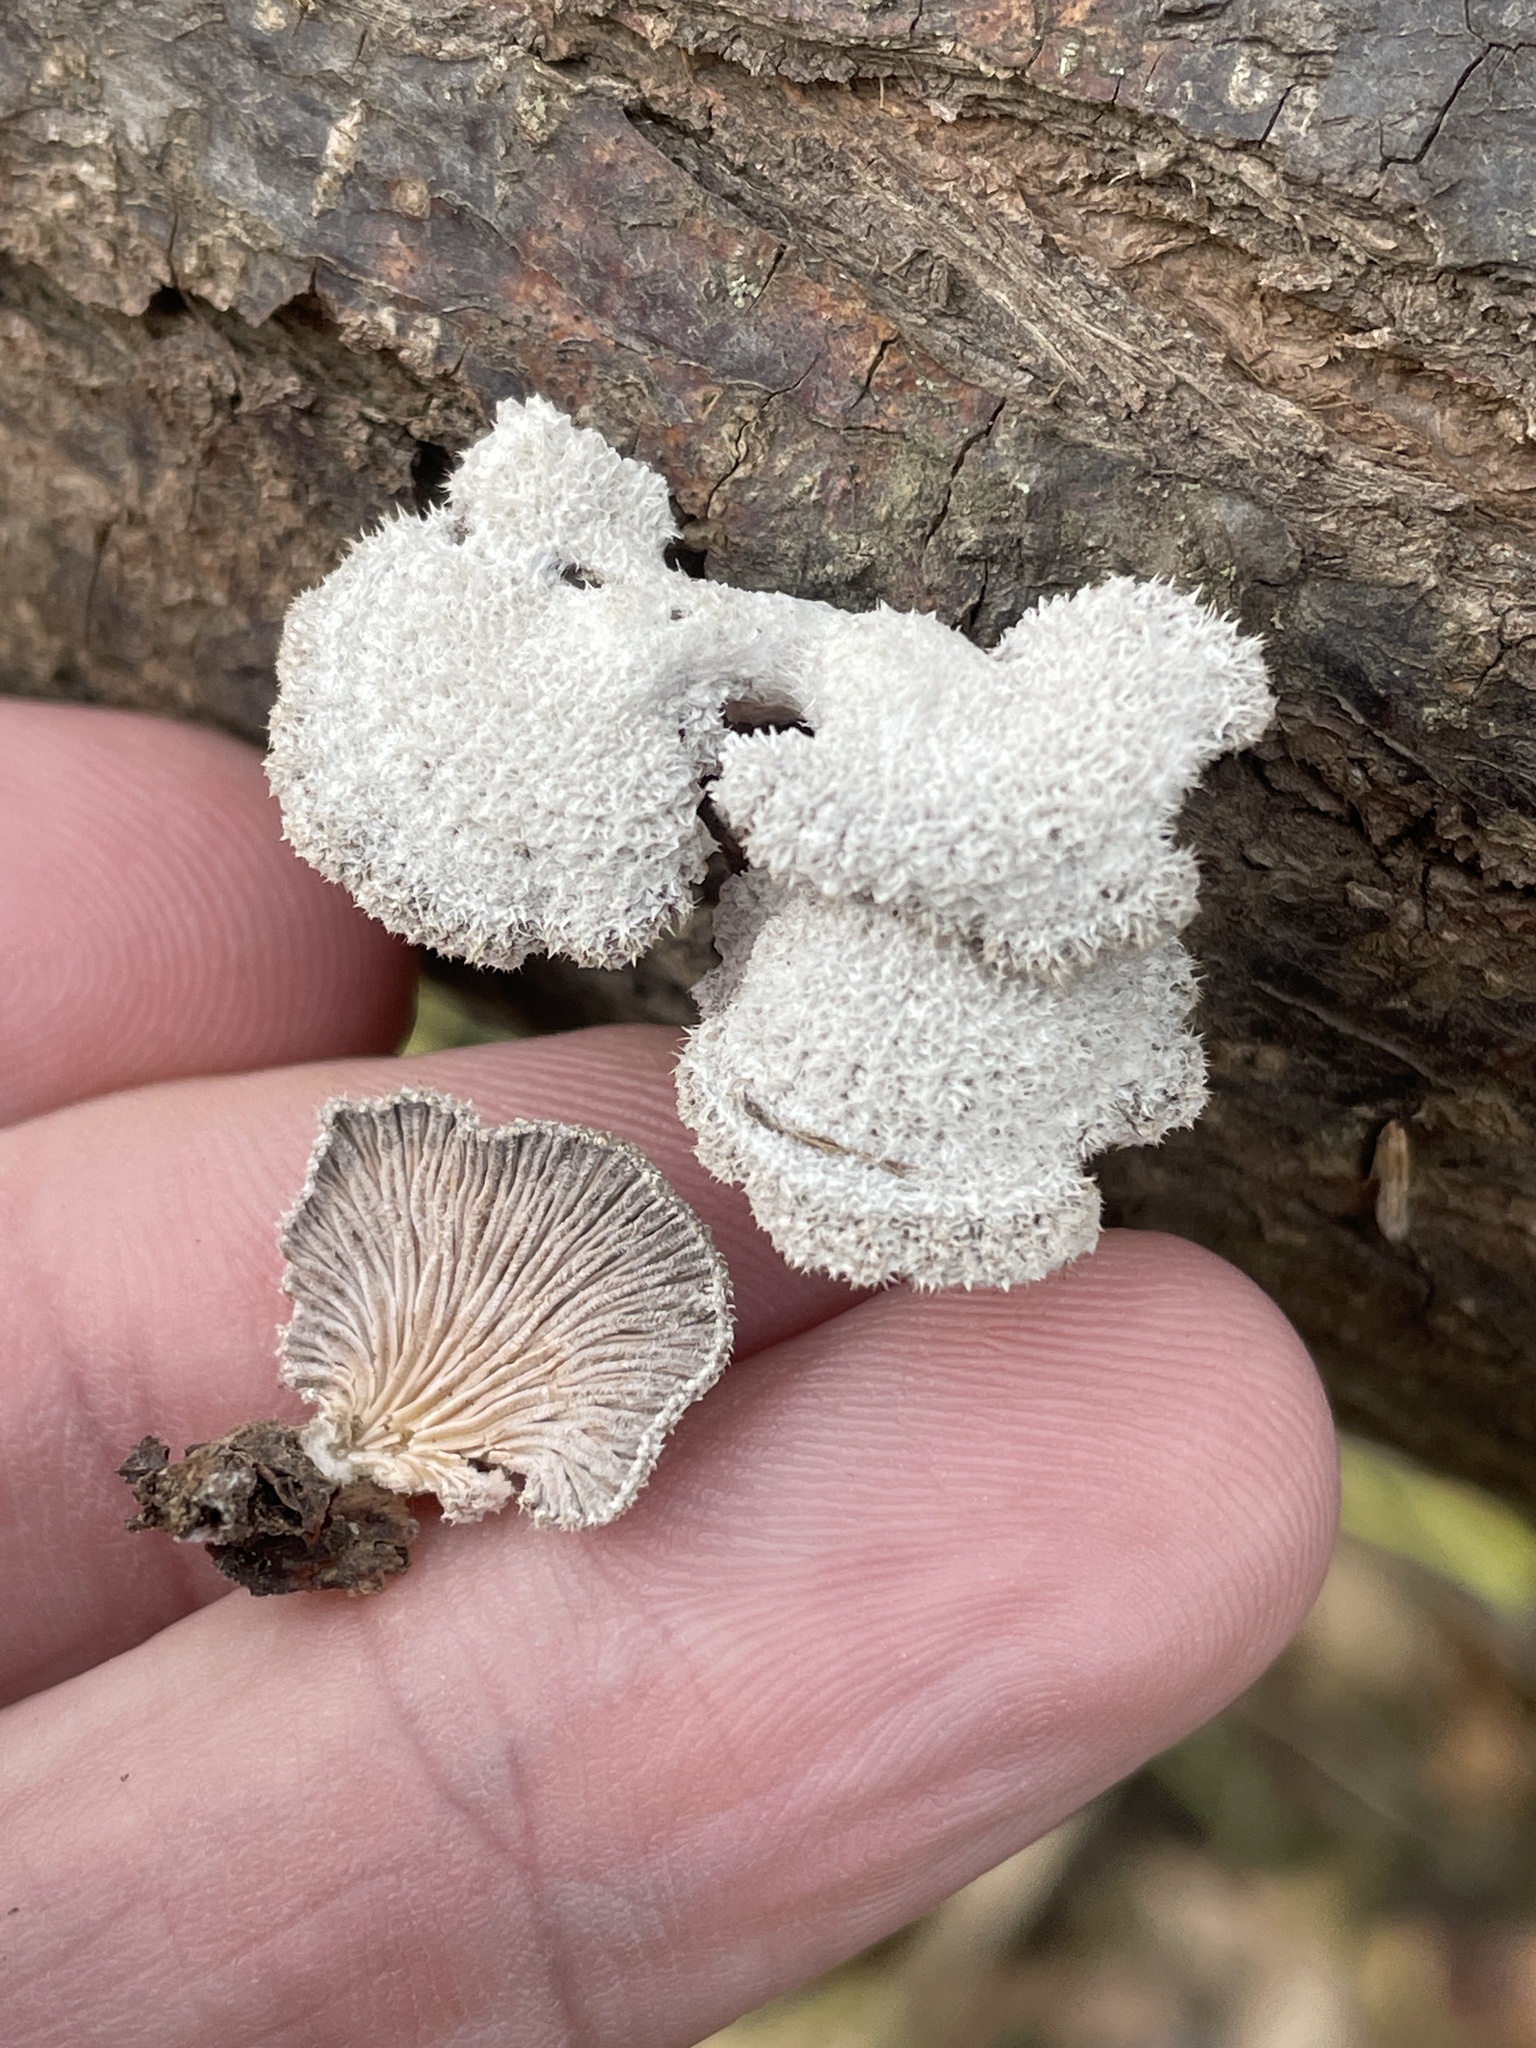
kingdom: Fungi
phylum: Basidiomycota
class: Agaricomycetes
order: Agaricales
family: Schizophyllaceae
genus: Schizophyllum
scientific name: Schizophyllum commune
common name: Common porecrust
